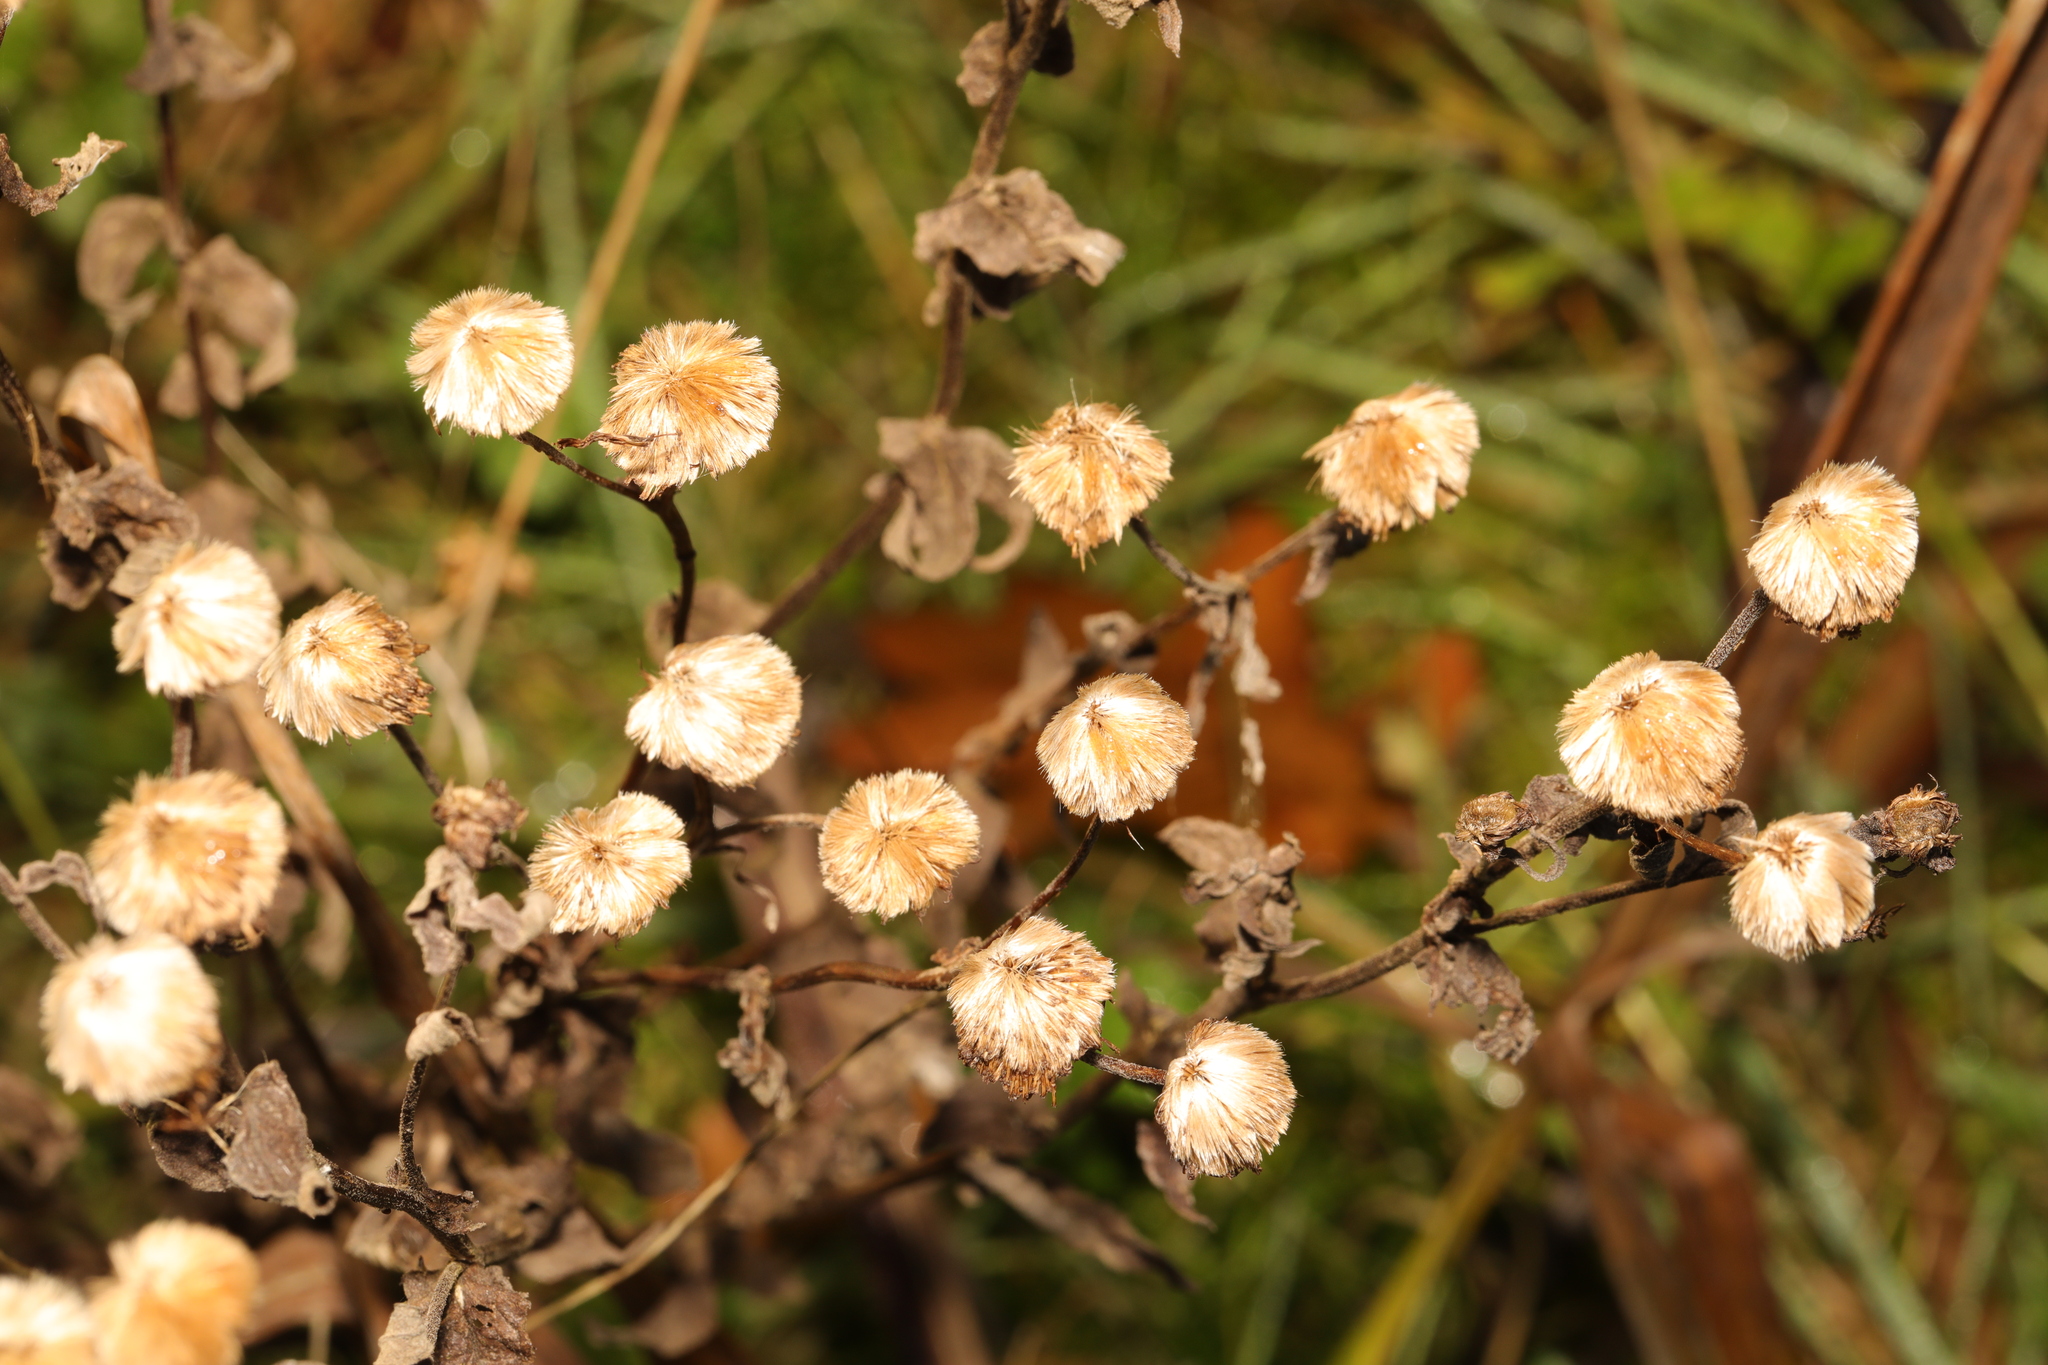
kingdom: Plantae
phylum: Tracheophyta
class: Magnoliopsida
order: Asterales
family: Asteraceae
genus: Tanacetum
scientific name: Tanacetum vulgare
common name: Common tansy
